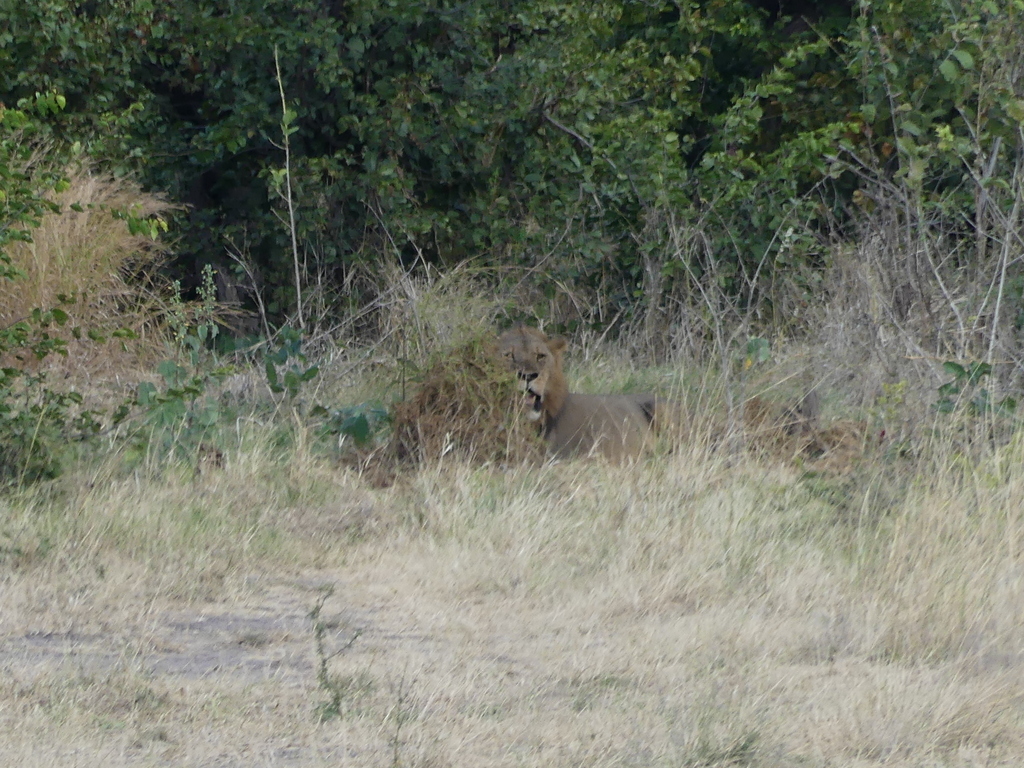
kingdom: Animalia
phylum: Chordata
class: Mammalia
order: Carnivora
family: Felidae
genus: Panthera
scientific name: Panthera leo
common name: Lion
